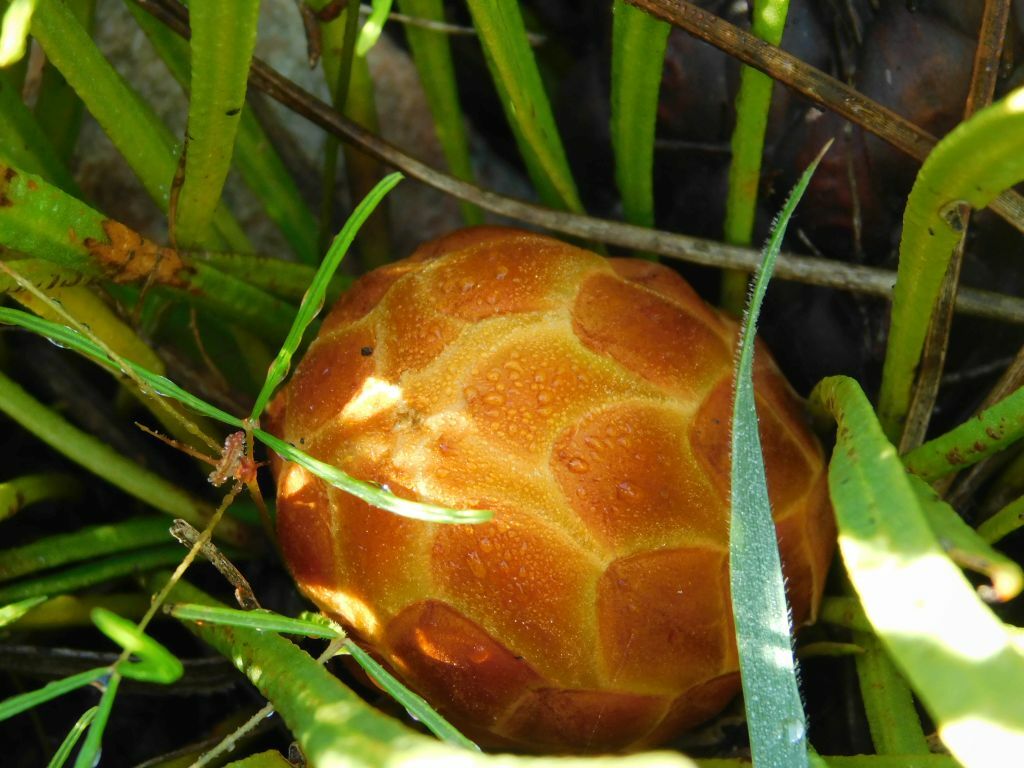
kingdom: Plantae
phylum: Tracheophyta
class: Magnoliopsida
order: Proteales
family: Proteaceae
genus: Protea
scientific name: Protea scabra
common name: Sandpaper-leaf sugarbush
